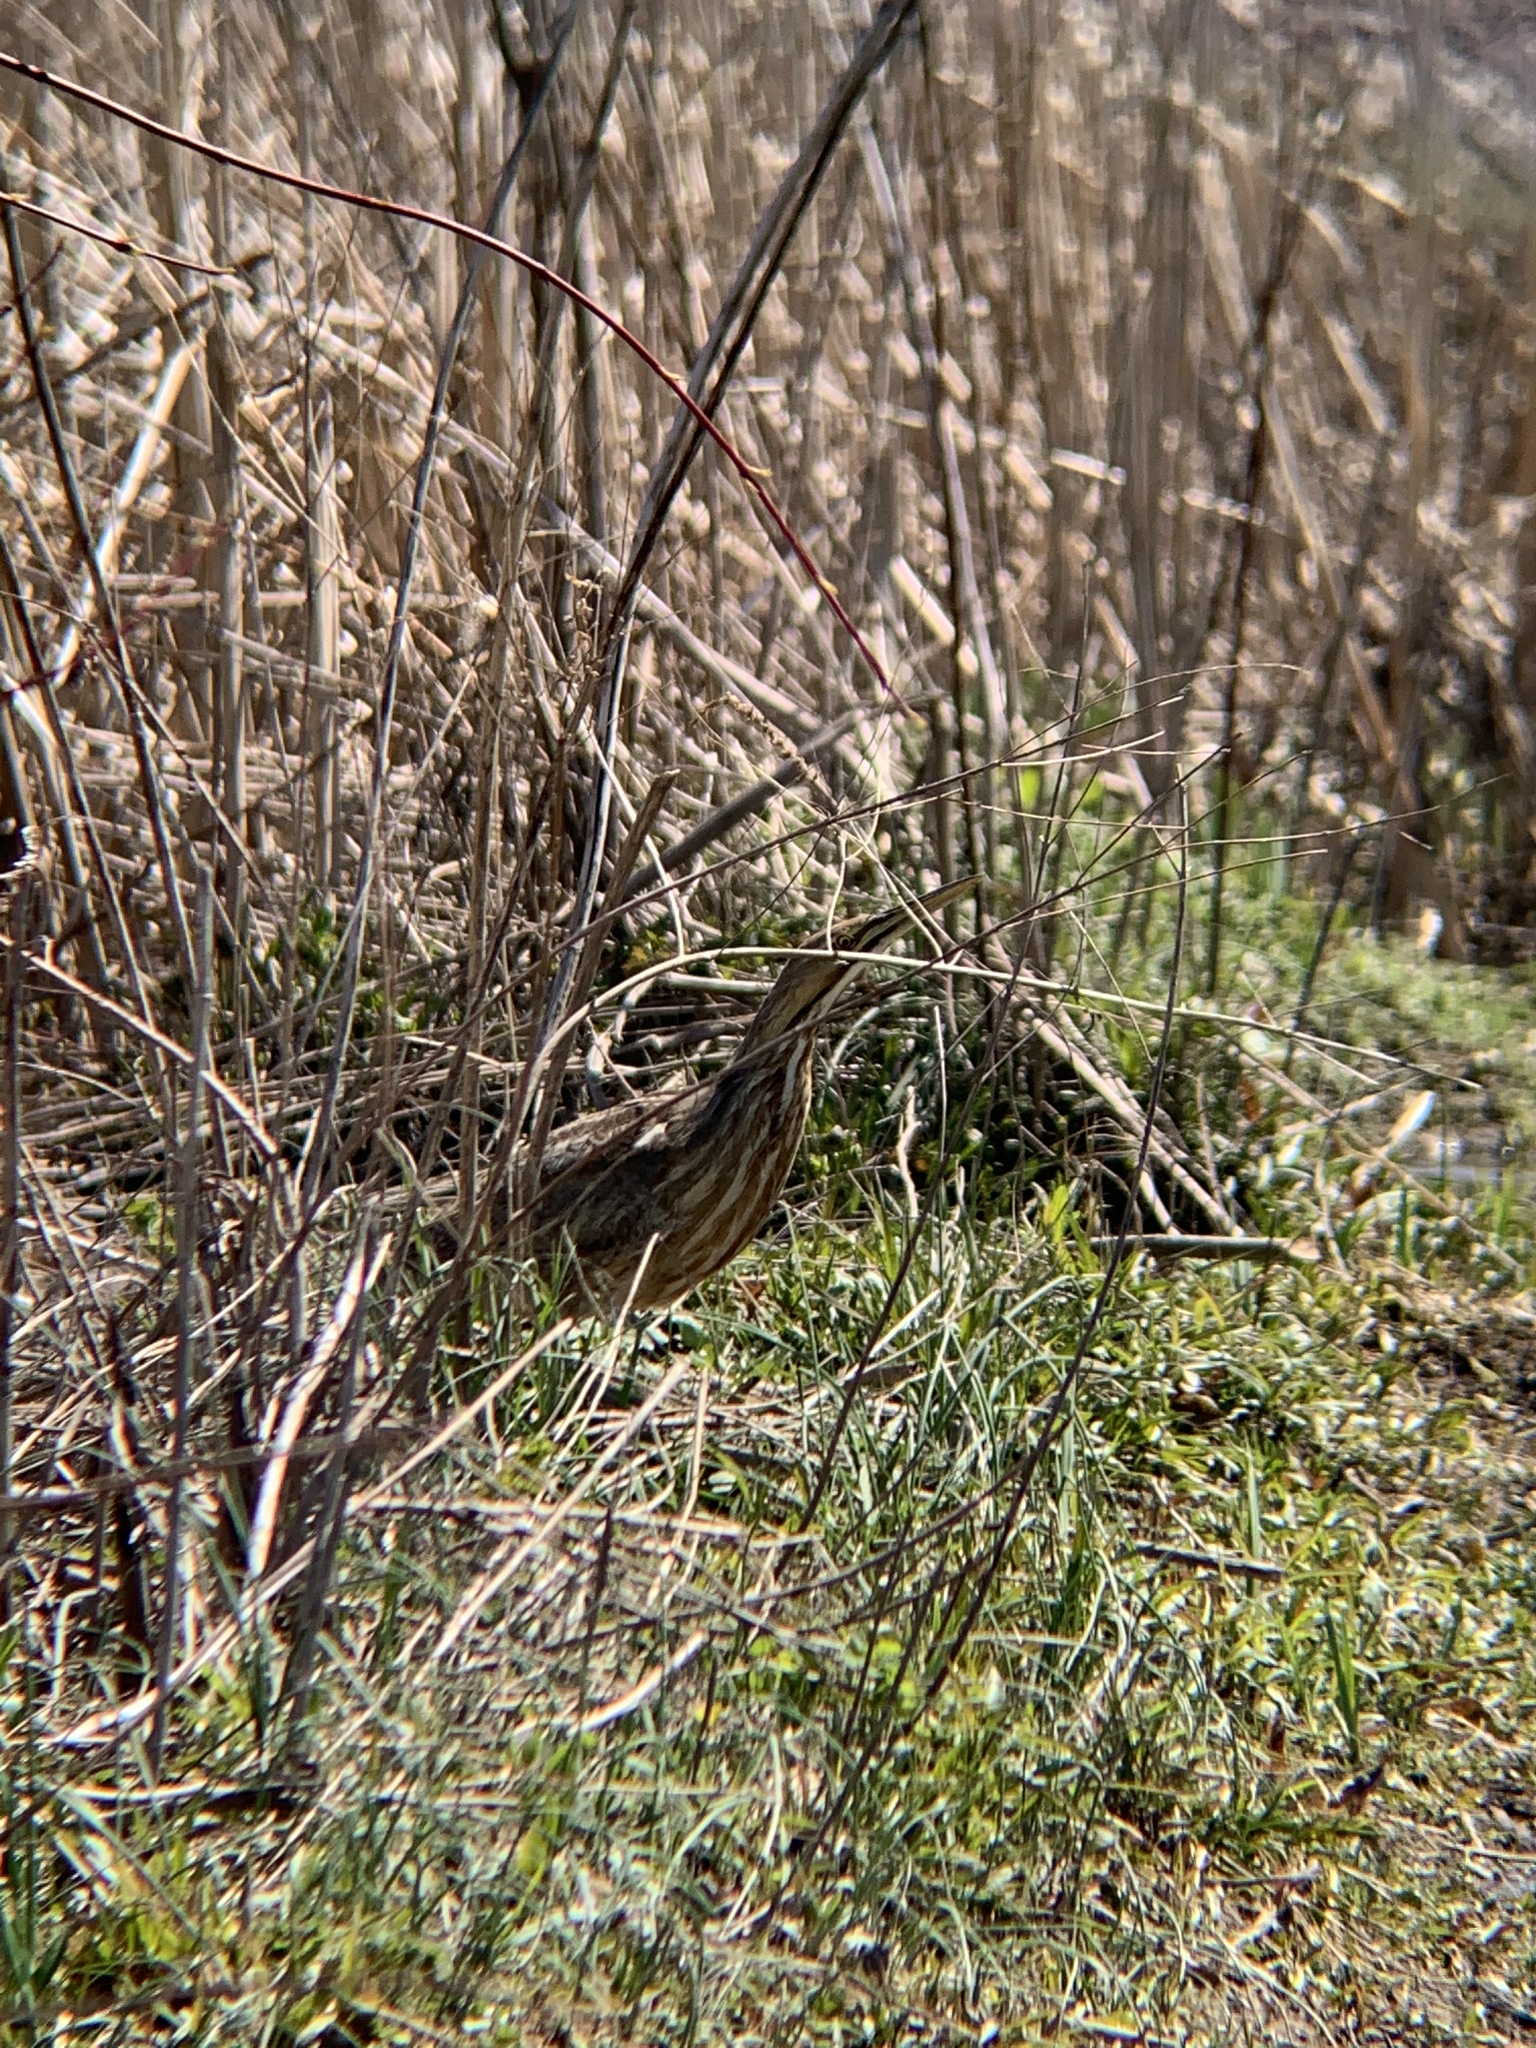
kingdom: Animalia
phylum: Chordata
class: Aves
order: Pelecaniformes
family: Ardeidae
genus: Botaurus
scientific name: Botaurus lentiginosus
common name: American bittern
